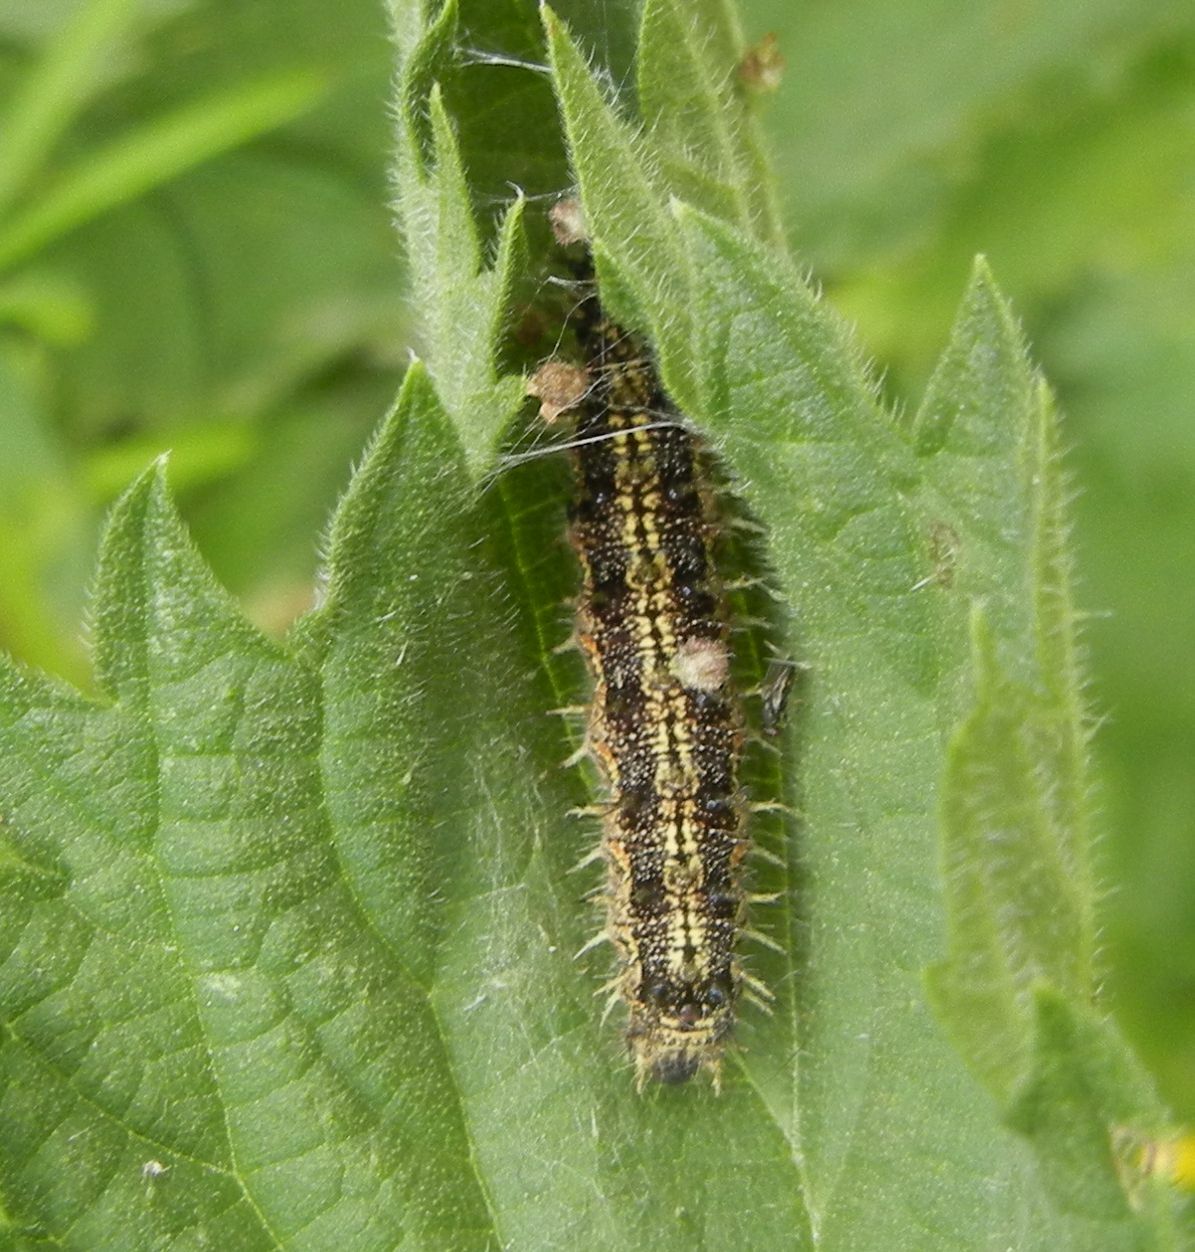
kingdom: Animalia
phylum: Arthropoda
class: Insecta
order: Lepidoptera
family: Nymphalidae
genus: Aglais
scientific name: Aglais urticae
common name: Small tortoiseshell
